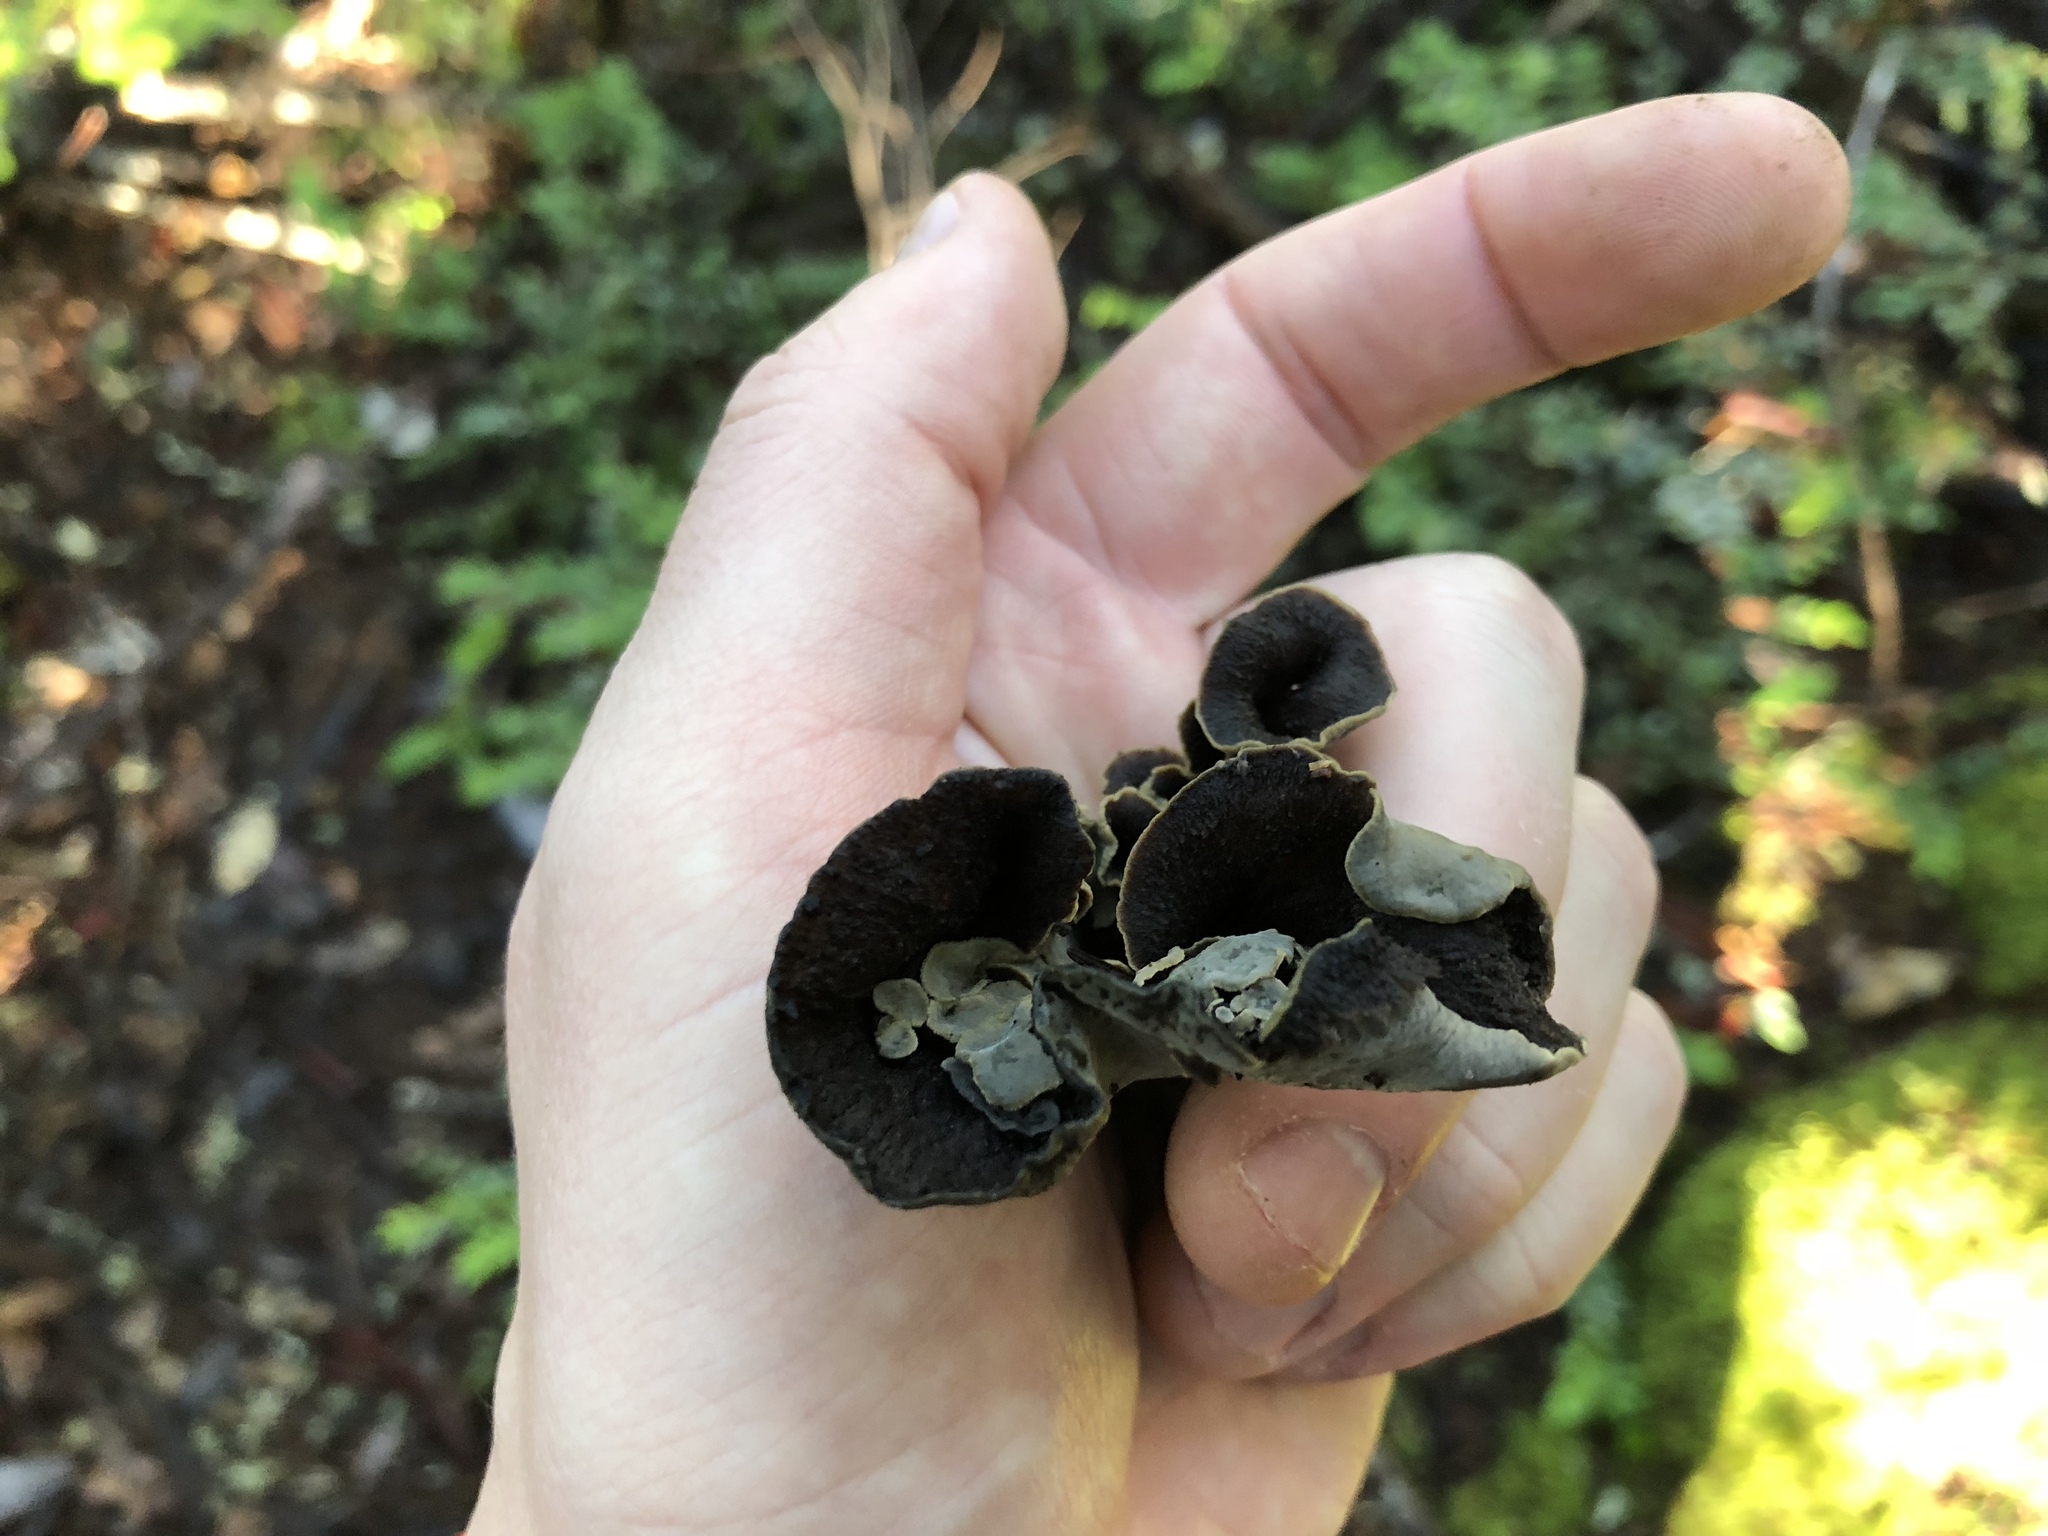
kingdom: Fungi
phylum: Basidiomycota
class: Agaricomycetes
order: Cantharellales
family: Hydnaceae
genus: Craterellus
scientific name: Craterellus calicornucopioides
